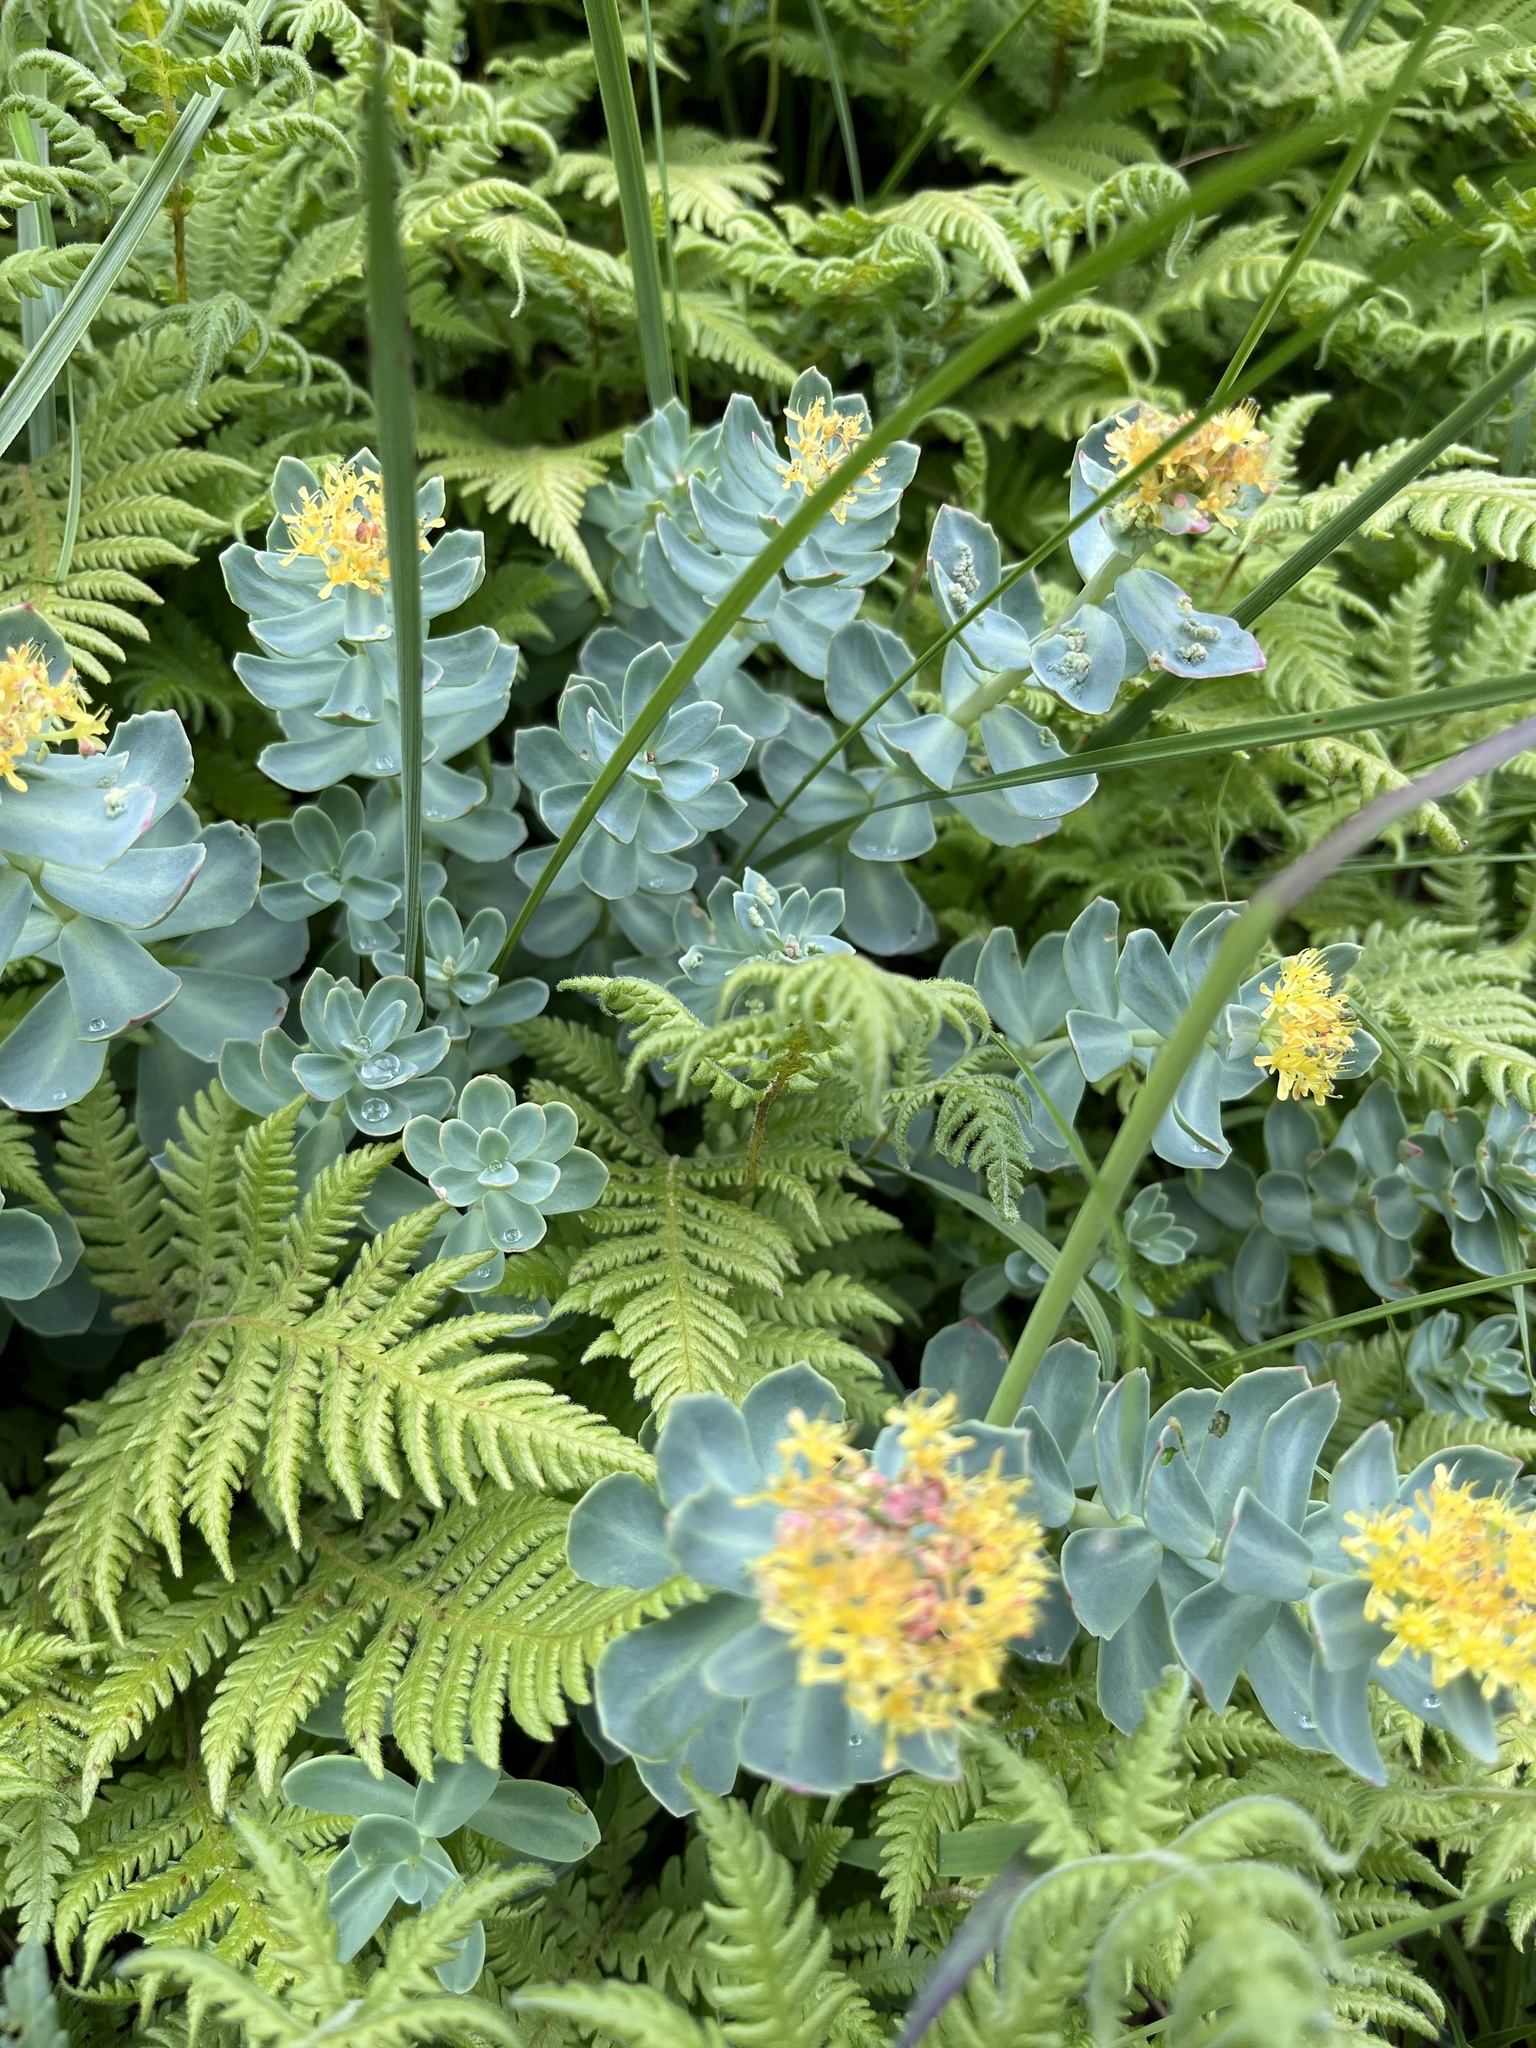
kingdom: Plantae
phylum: Tracheophyta
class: Magnoliopsida
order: Saxifragales
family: Crassulaceae
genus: Rhodiola
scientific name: Rhodiola rosea
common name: Roseroot
